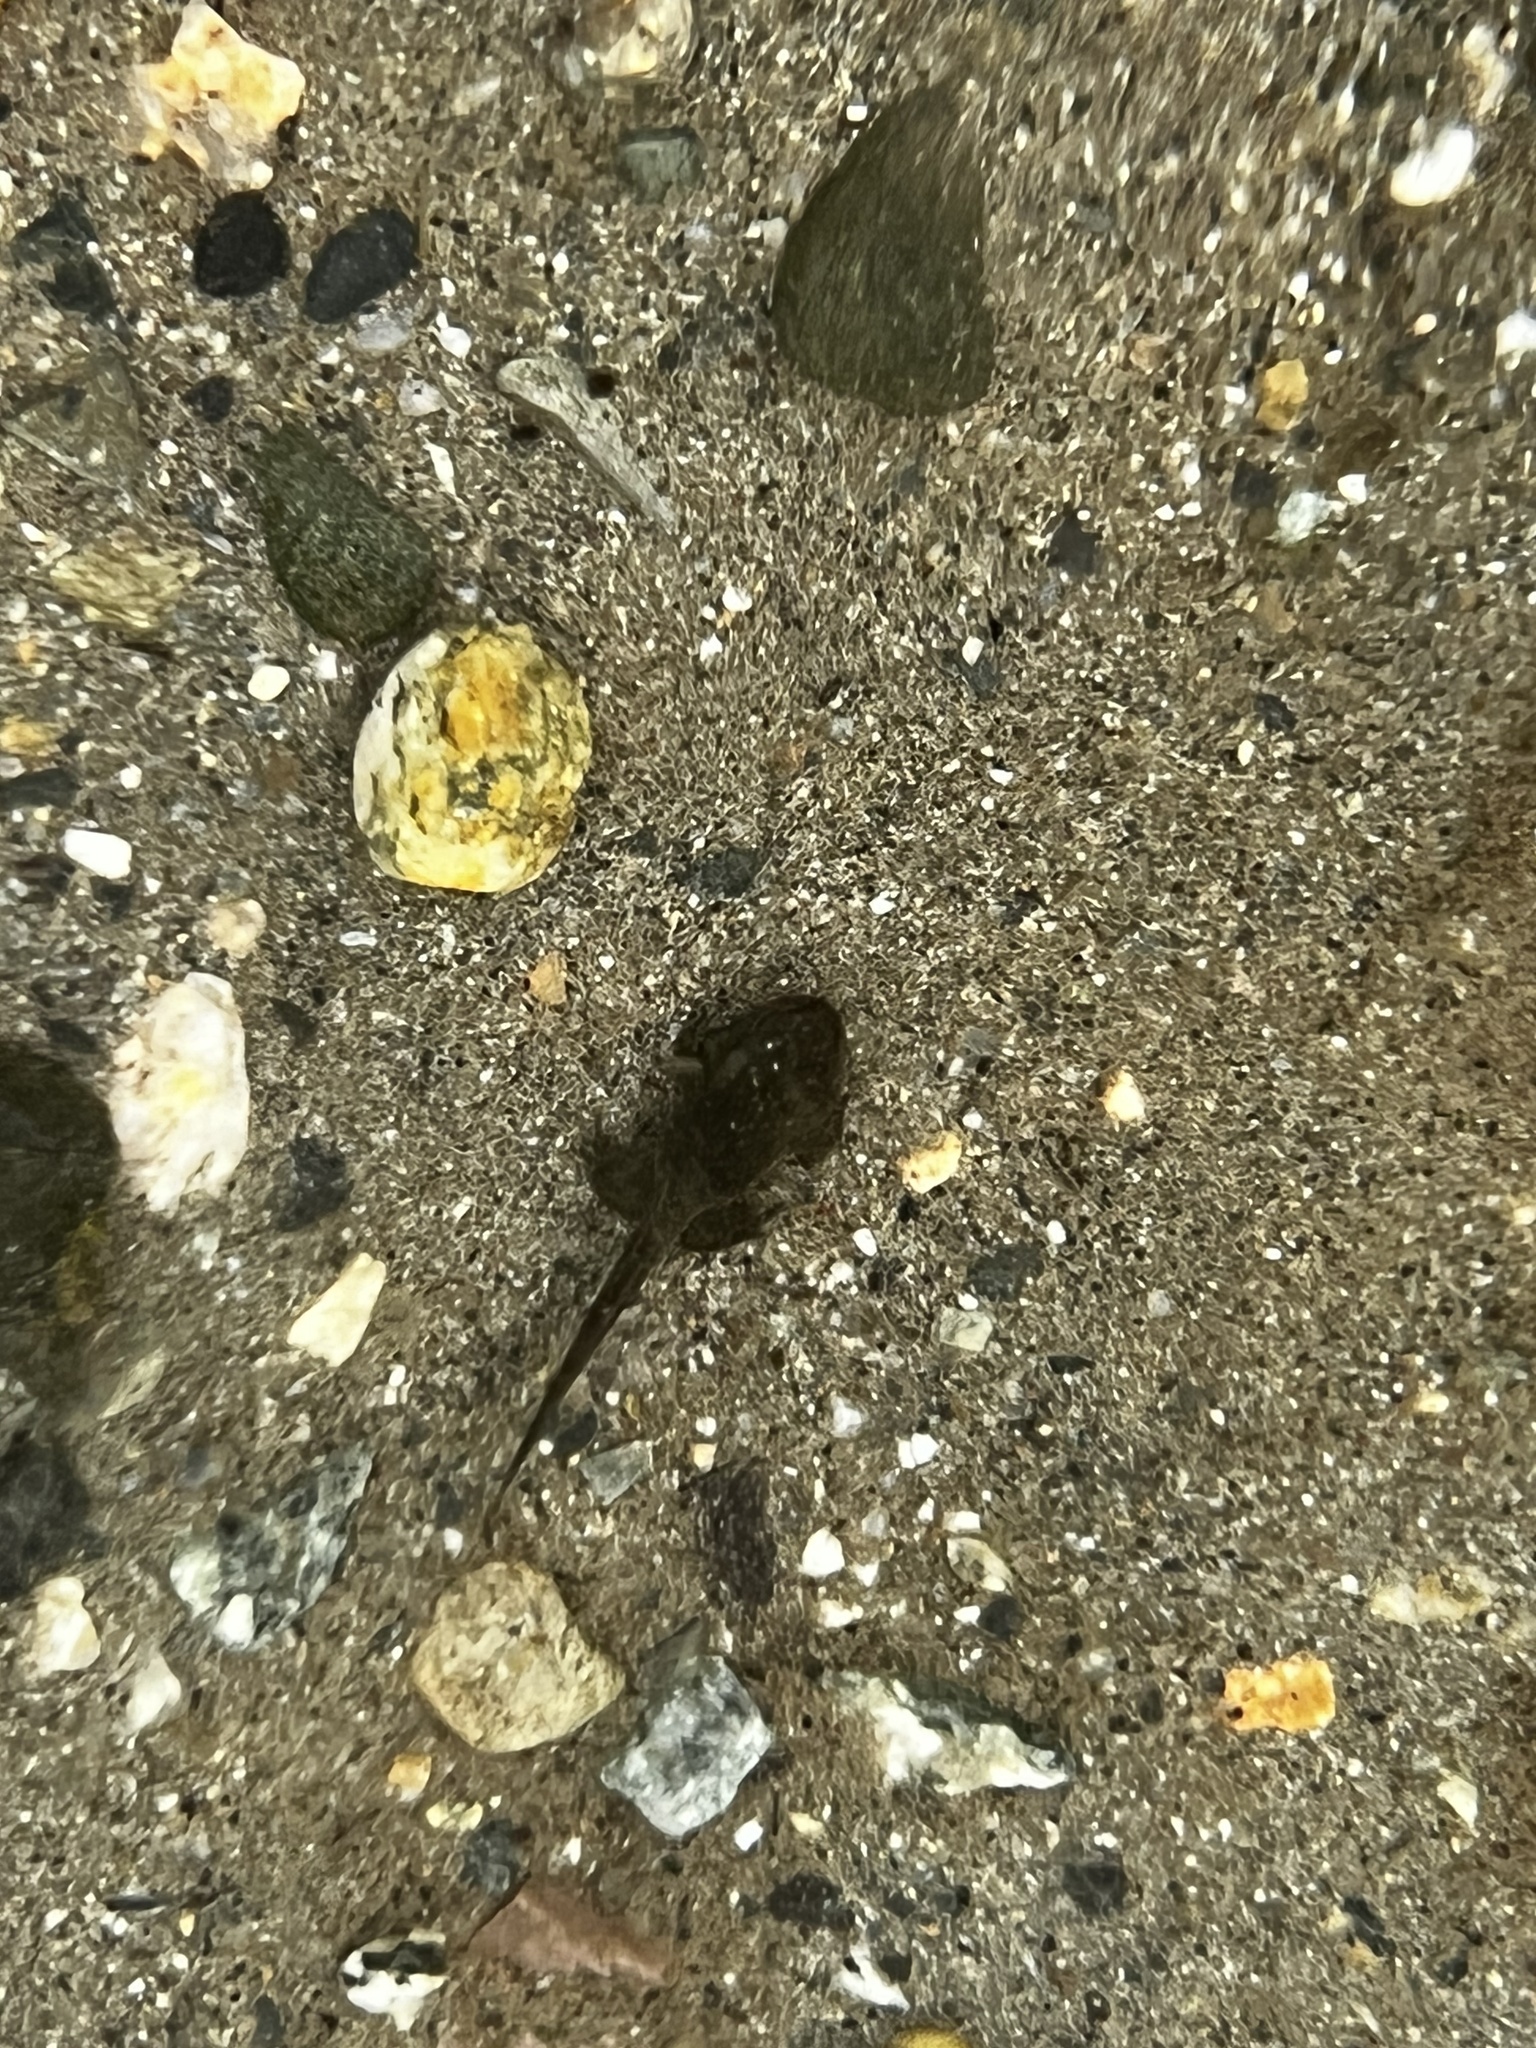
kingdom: Animalia
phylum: Chordata
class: Amphibia
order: Anura
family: Bufonidae
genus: Anaxyrus
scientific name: Anaxyrus boreas
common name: Western toad
